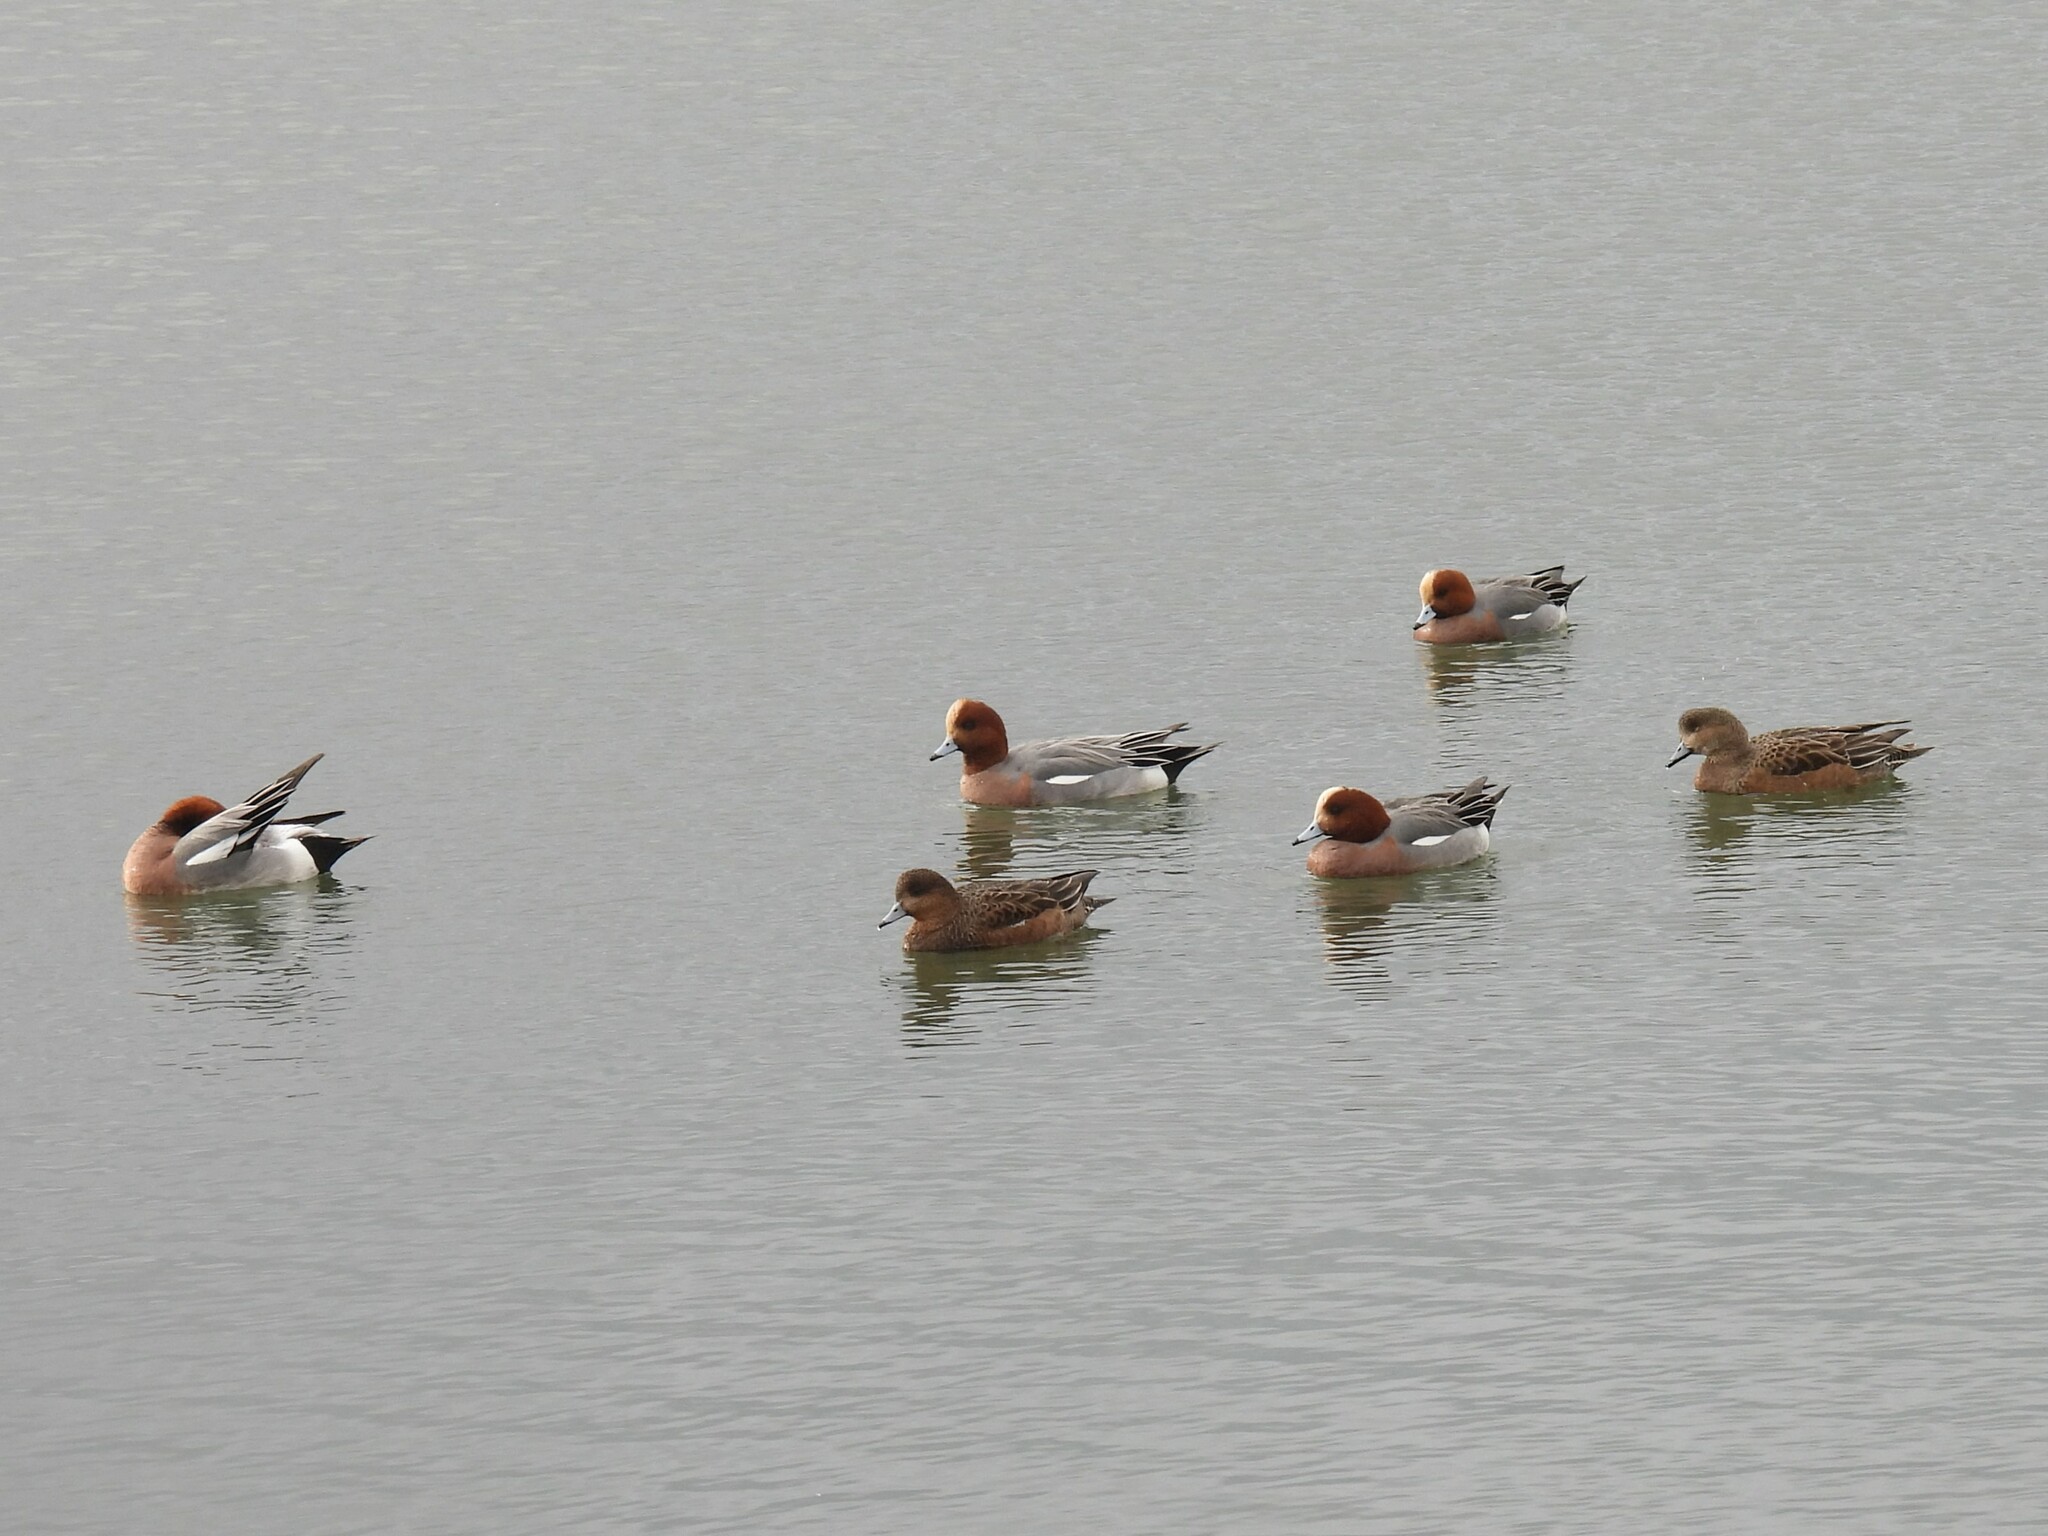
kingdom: Animalia
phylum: Chordata
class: Aves
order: Anseriformes
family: Anatidae
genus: Mareca
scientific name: Mareca penelope
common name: Eurasian wigeon
